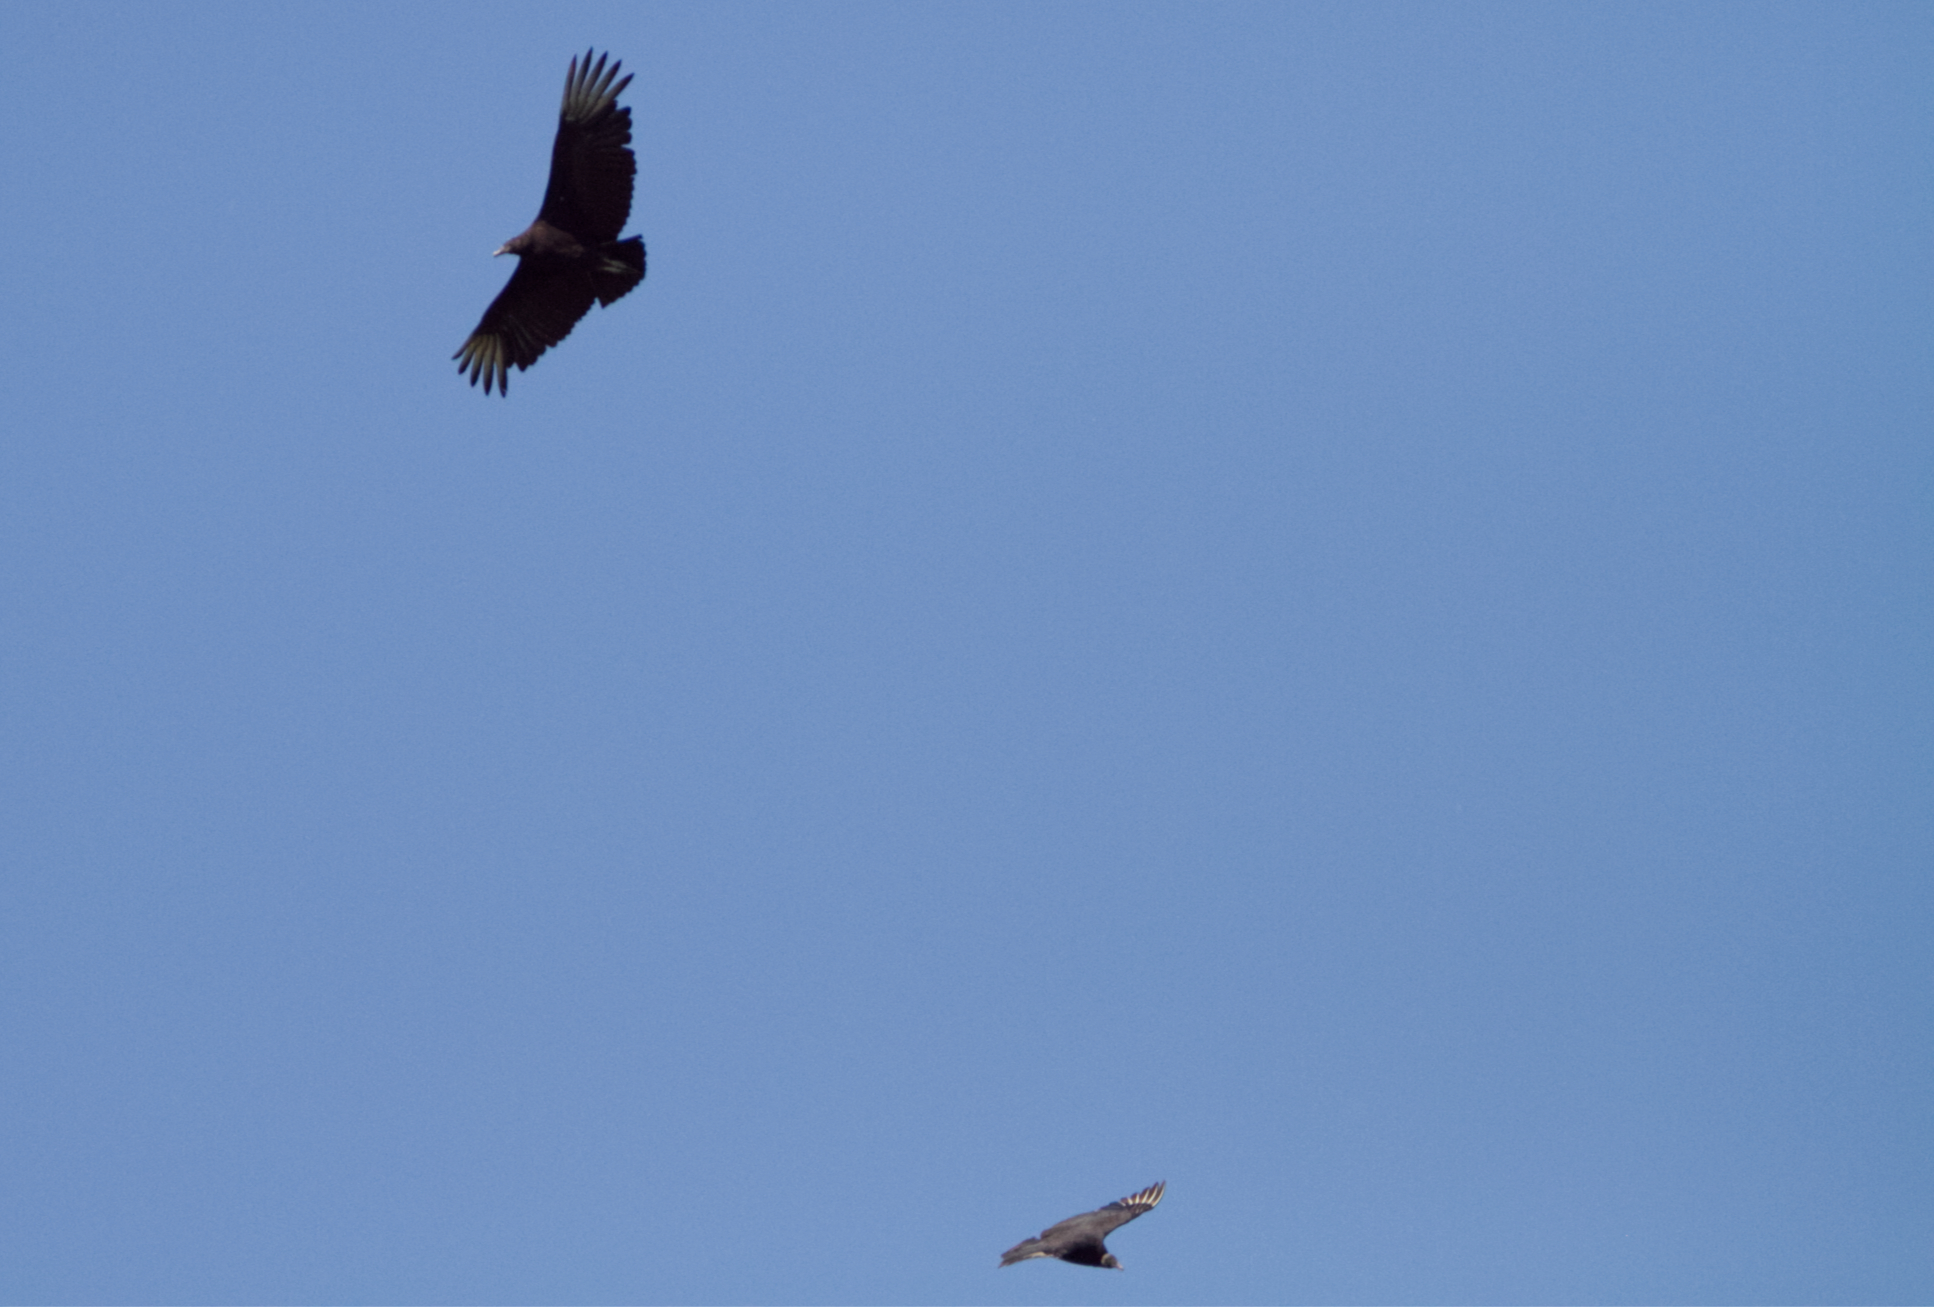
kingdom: Animalia
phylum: Chordata
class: Aves
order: Accipitriformes
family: Cathartidae
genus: Coragyps
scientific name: Coragyps atratus
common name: Black vulture
